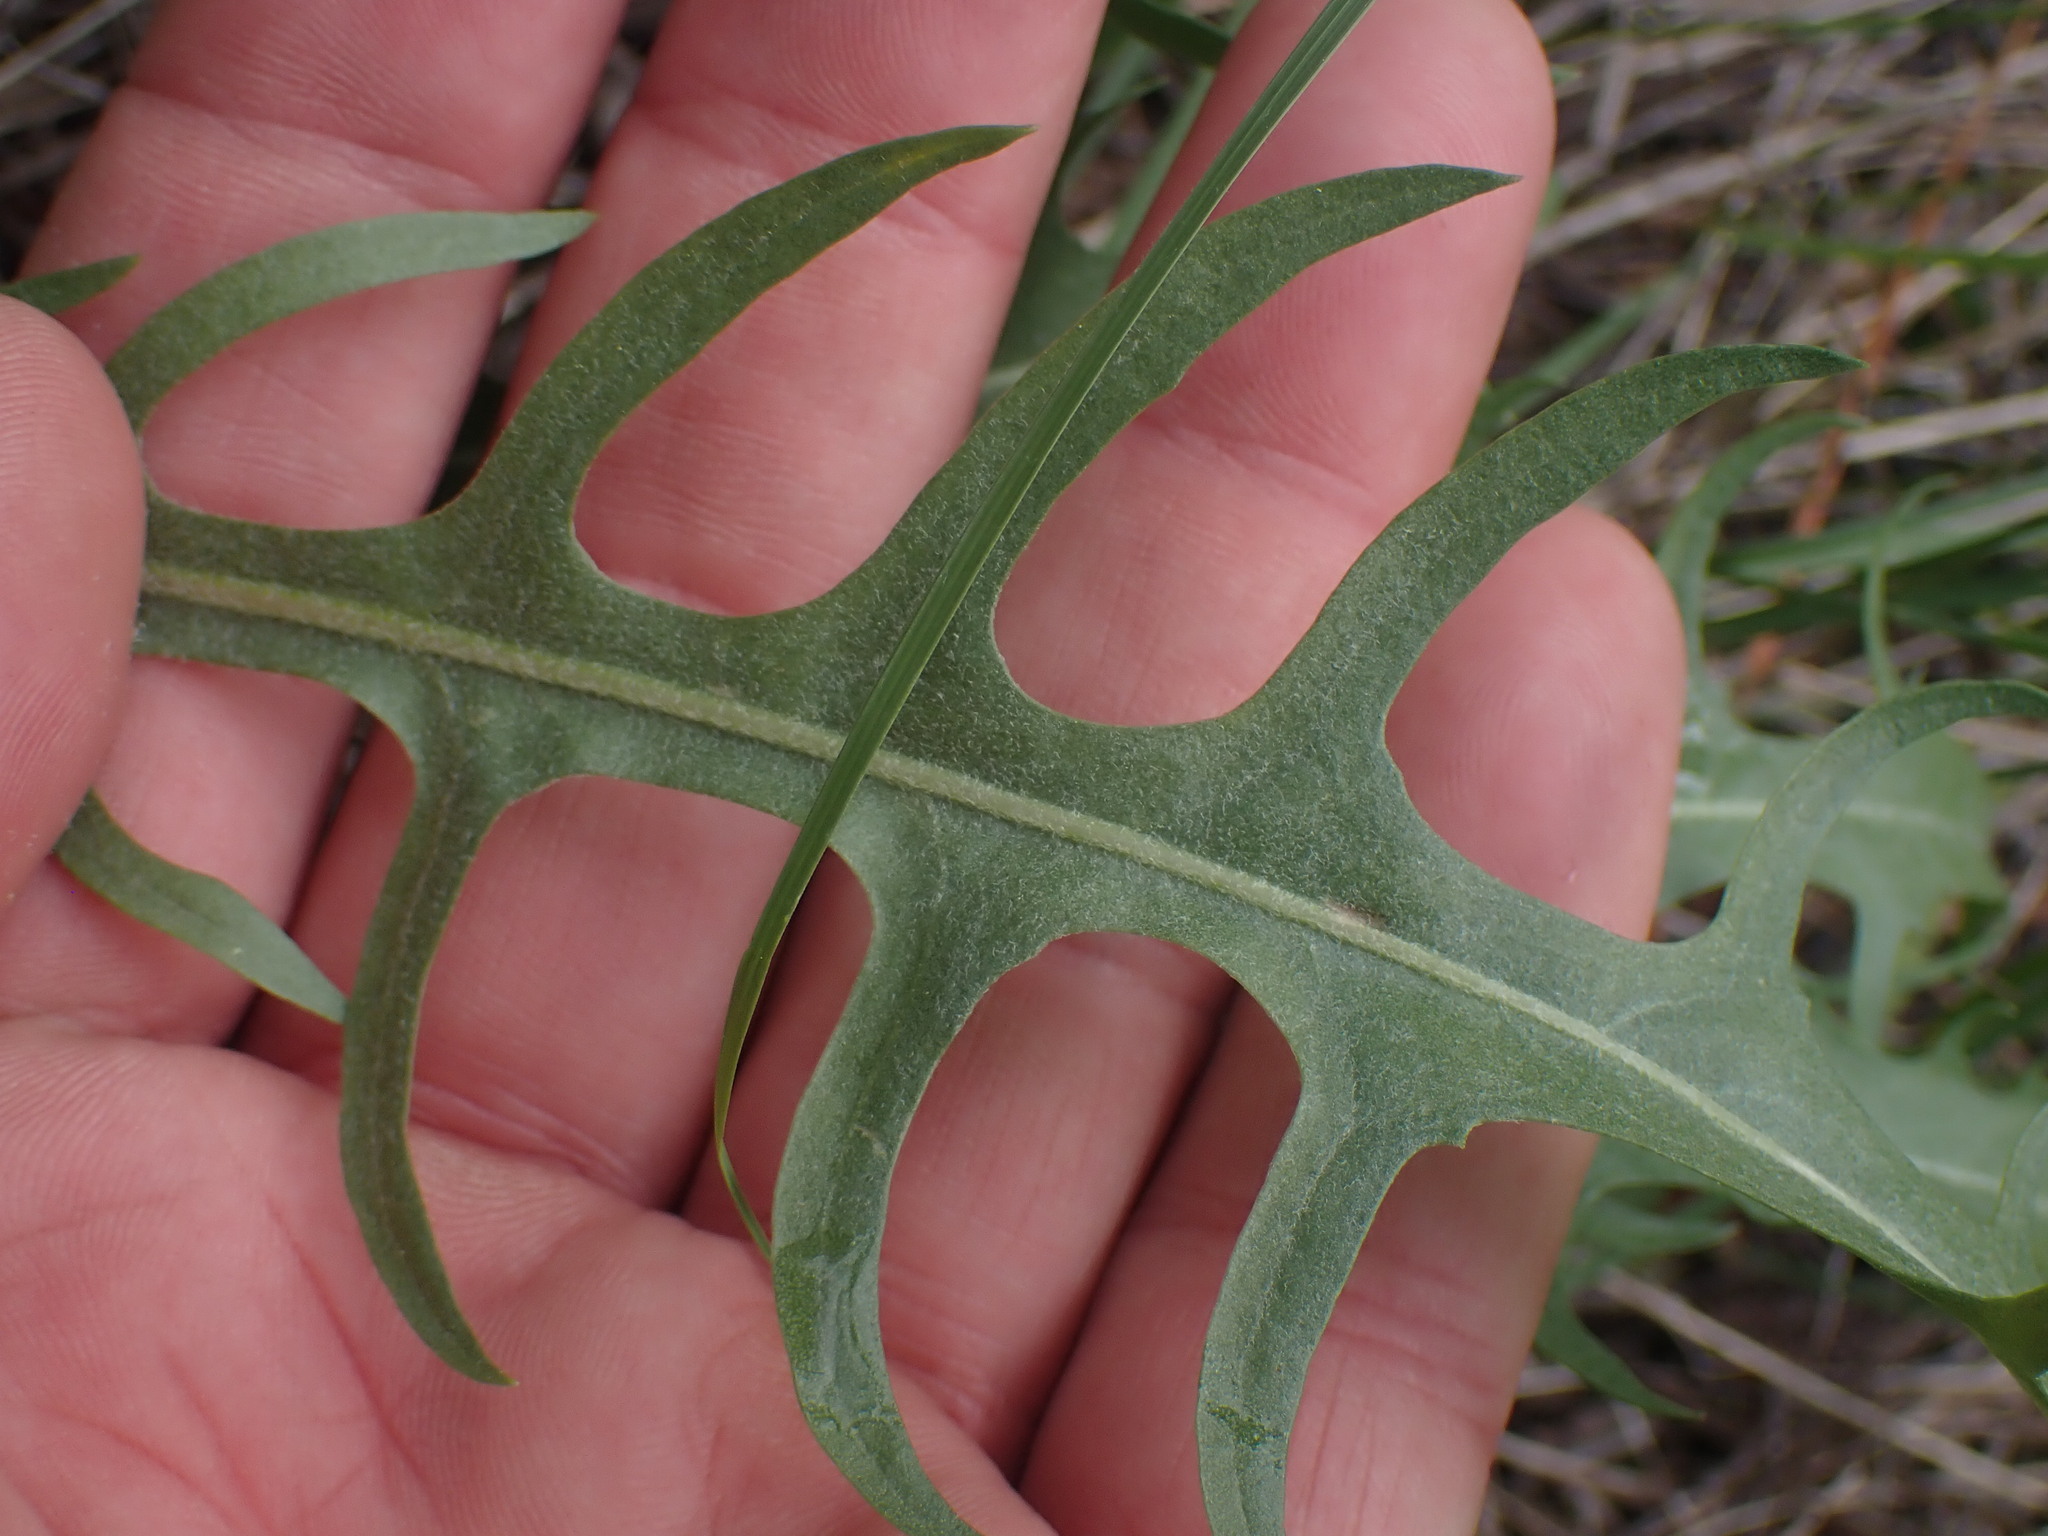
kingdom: Plantae
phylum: Tracheophyta
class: Magnoliopsida
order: Asterales
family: Asteraceae
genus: Crepis
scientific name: Crepis atribarba
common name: Dark hawk's-beard
